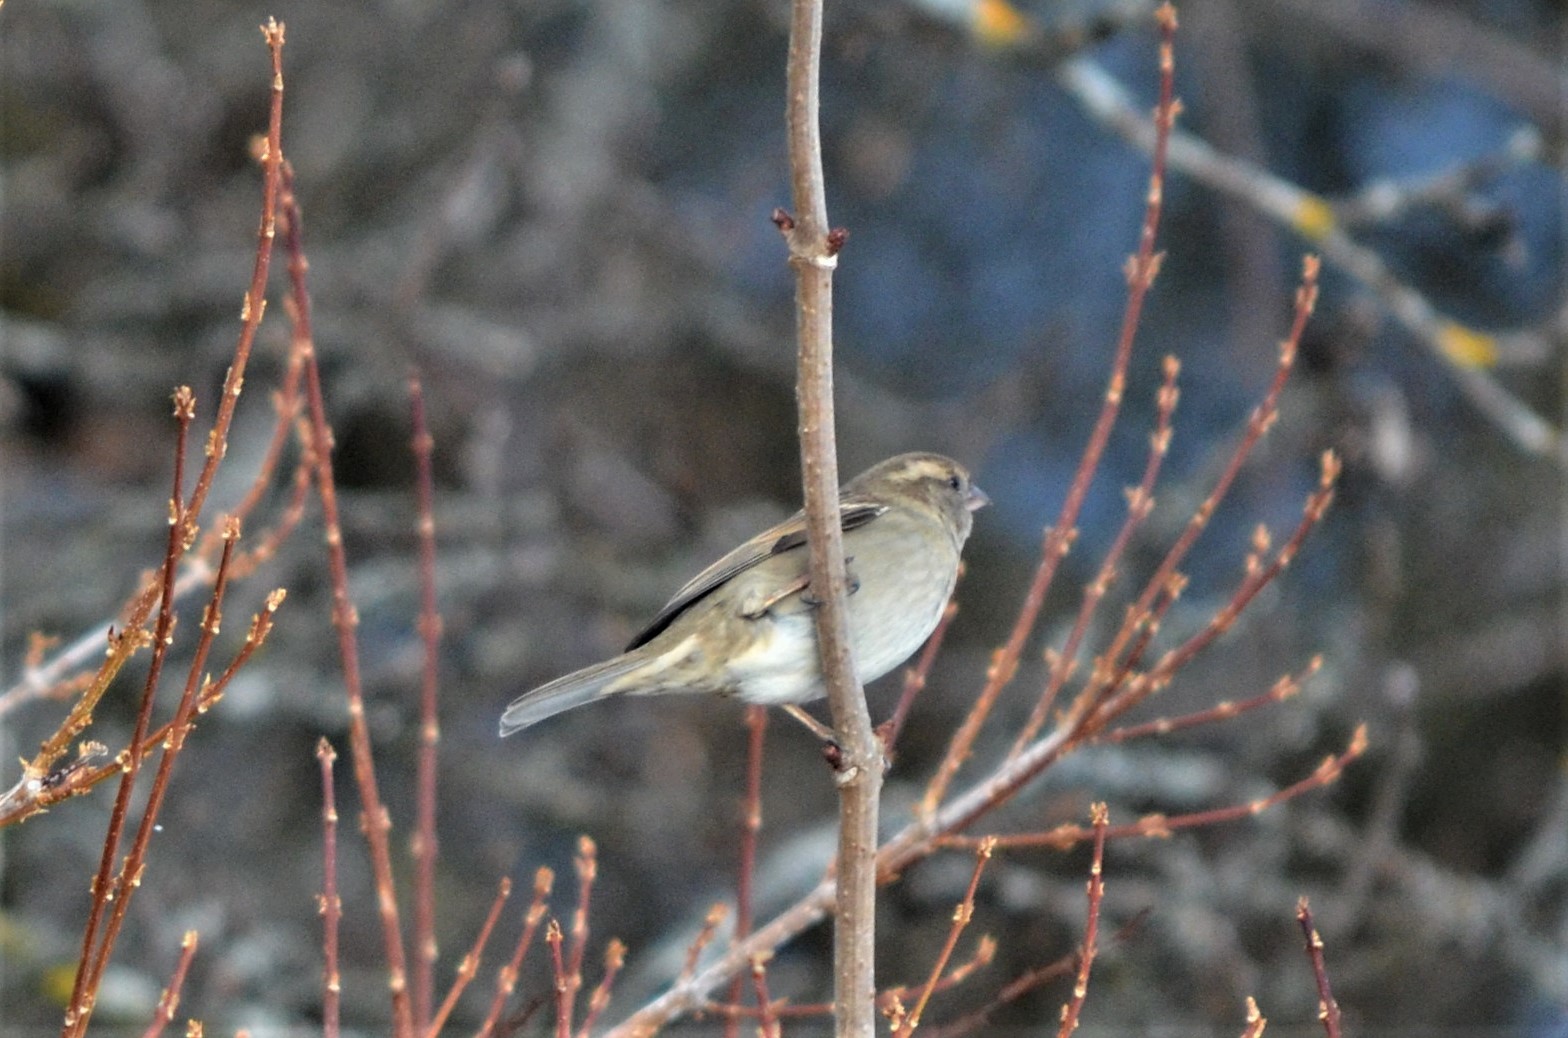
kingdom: Animalia
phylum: Chordata
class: Aves
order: Passeriformes
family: Passeridae
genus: Passer
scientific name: Passer domesticus
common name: House sparrow
